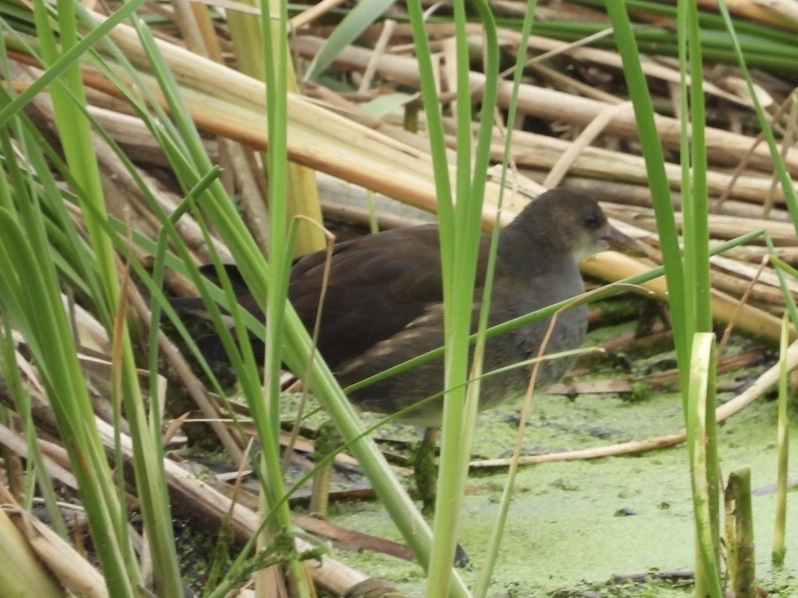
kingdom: Animalia
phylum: Chordata
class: Aves
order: Gruiformes
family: Rallidae
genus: Gallinula
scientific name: Gallinula chloropus
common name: Common moorhen
